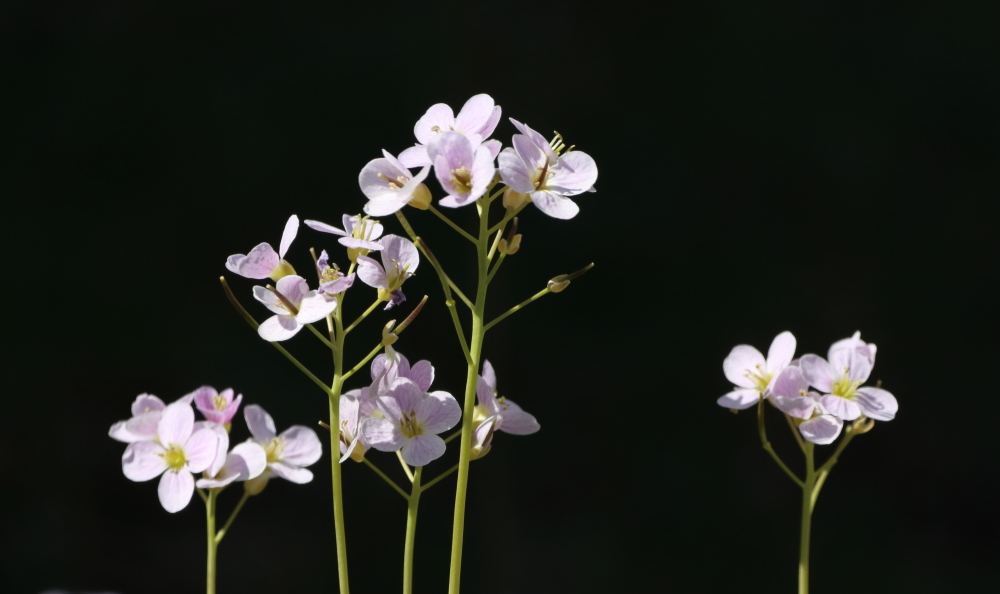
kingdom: Plantae
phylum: Tracheophyta
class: Magnoliopsida
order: Brassicales
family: Brassicaceae
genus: Cardamine
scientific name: Cardamine pratensis
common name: Cuckoo flower
